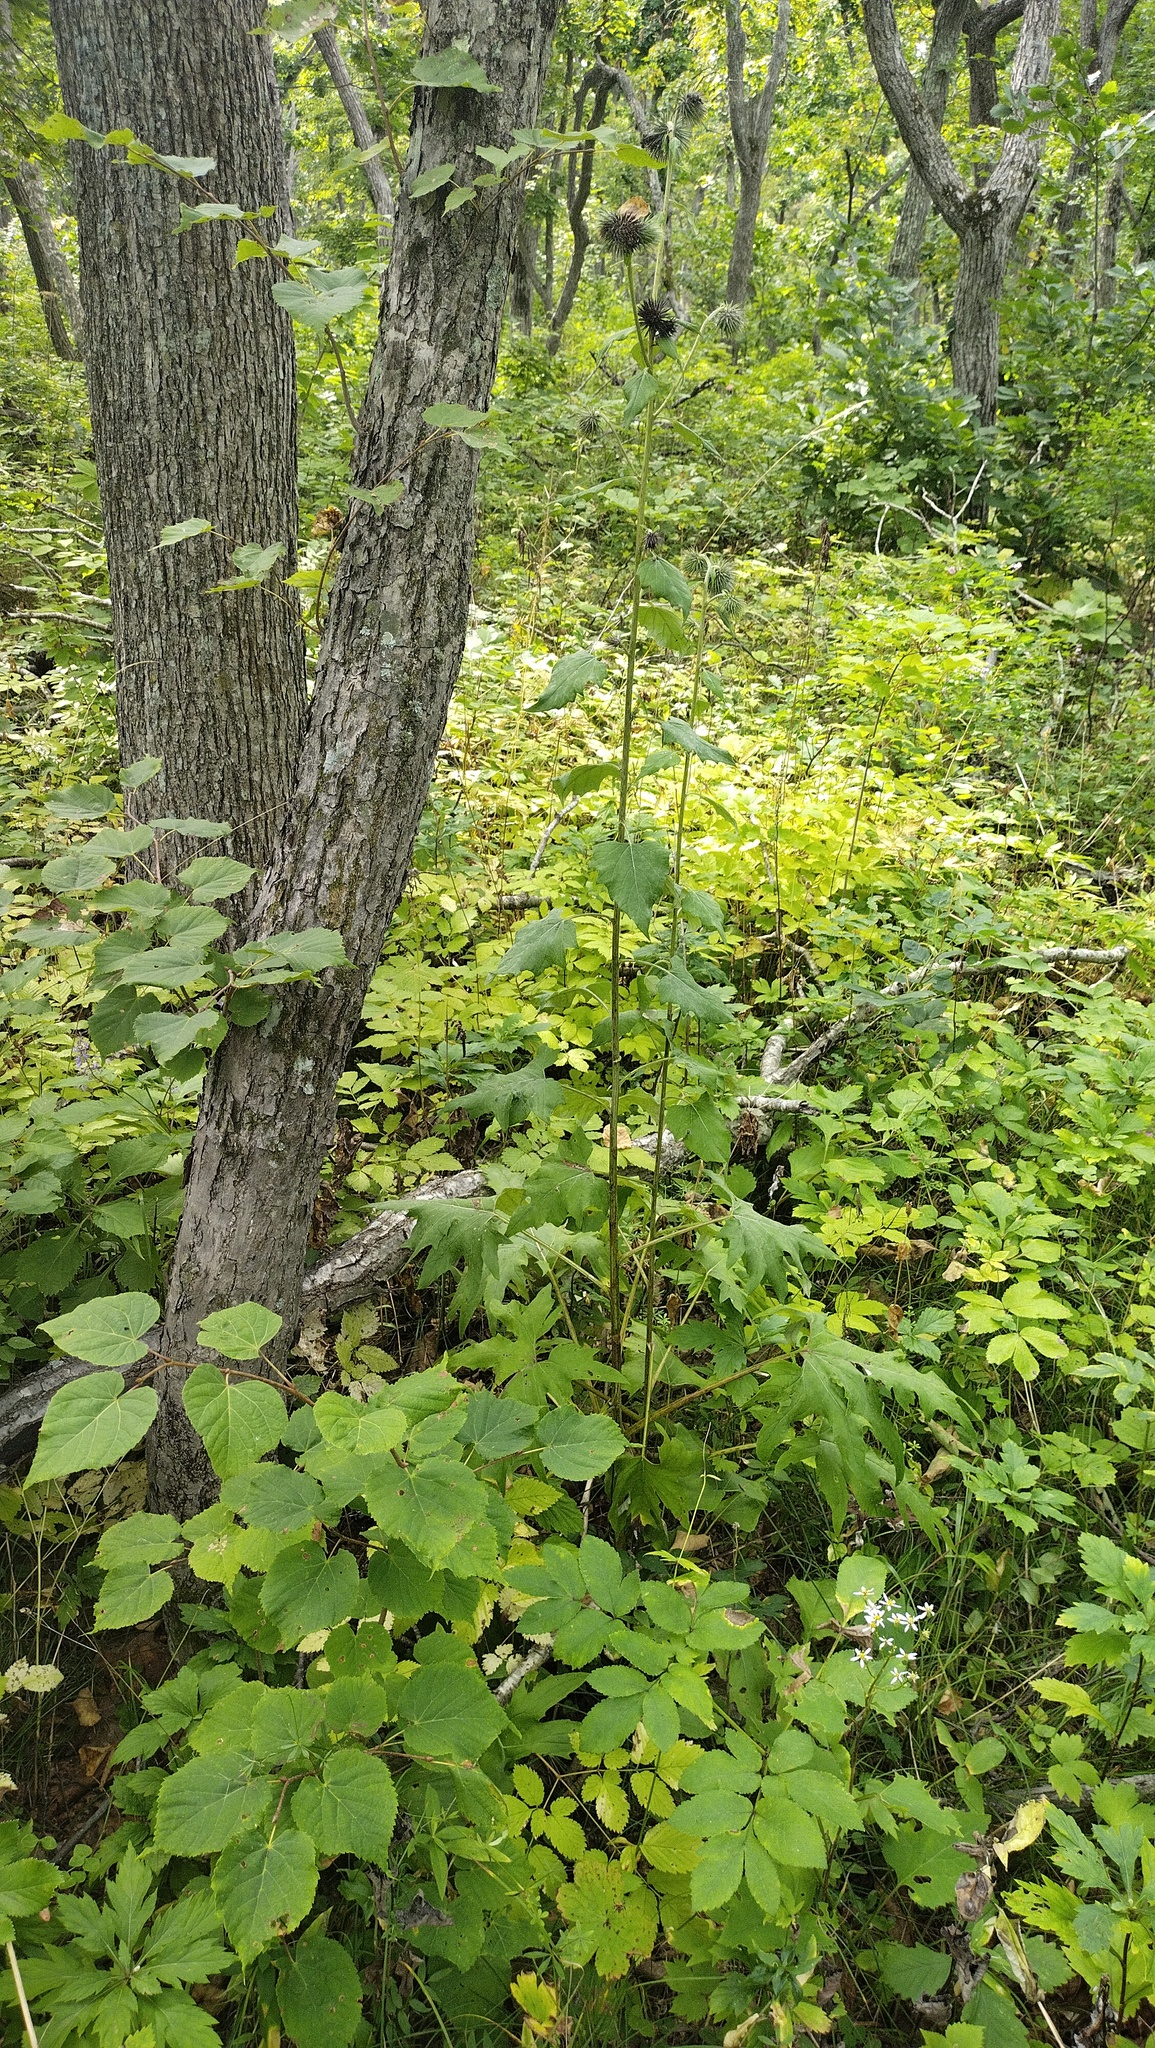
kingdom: Plantae
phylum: Tracheophyta
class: Magnoliopsida
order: Asterales
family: Asteraceae
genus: Synurus
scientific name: Synurus deltoides
